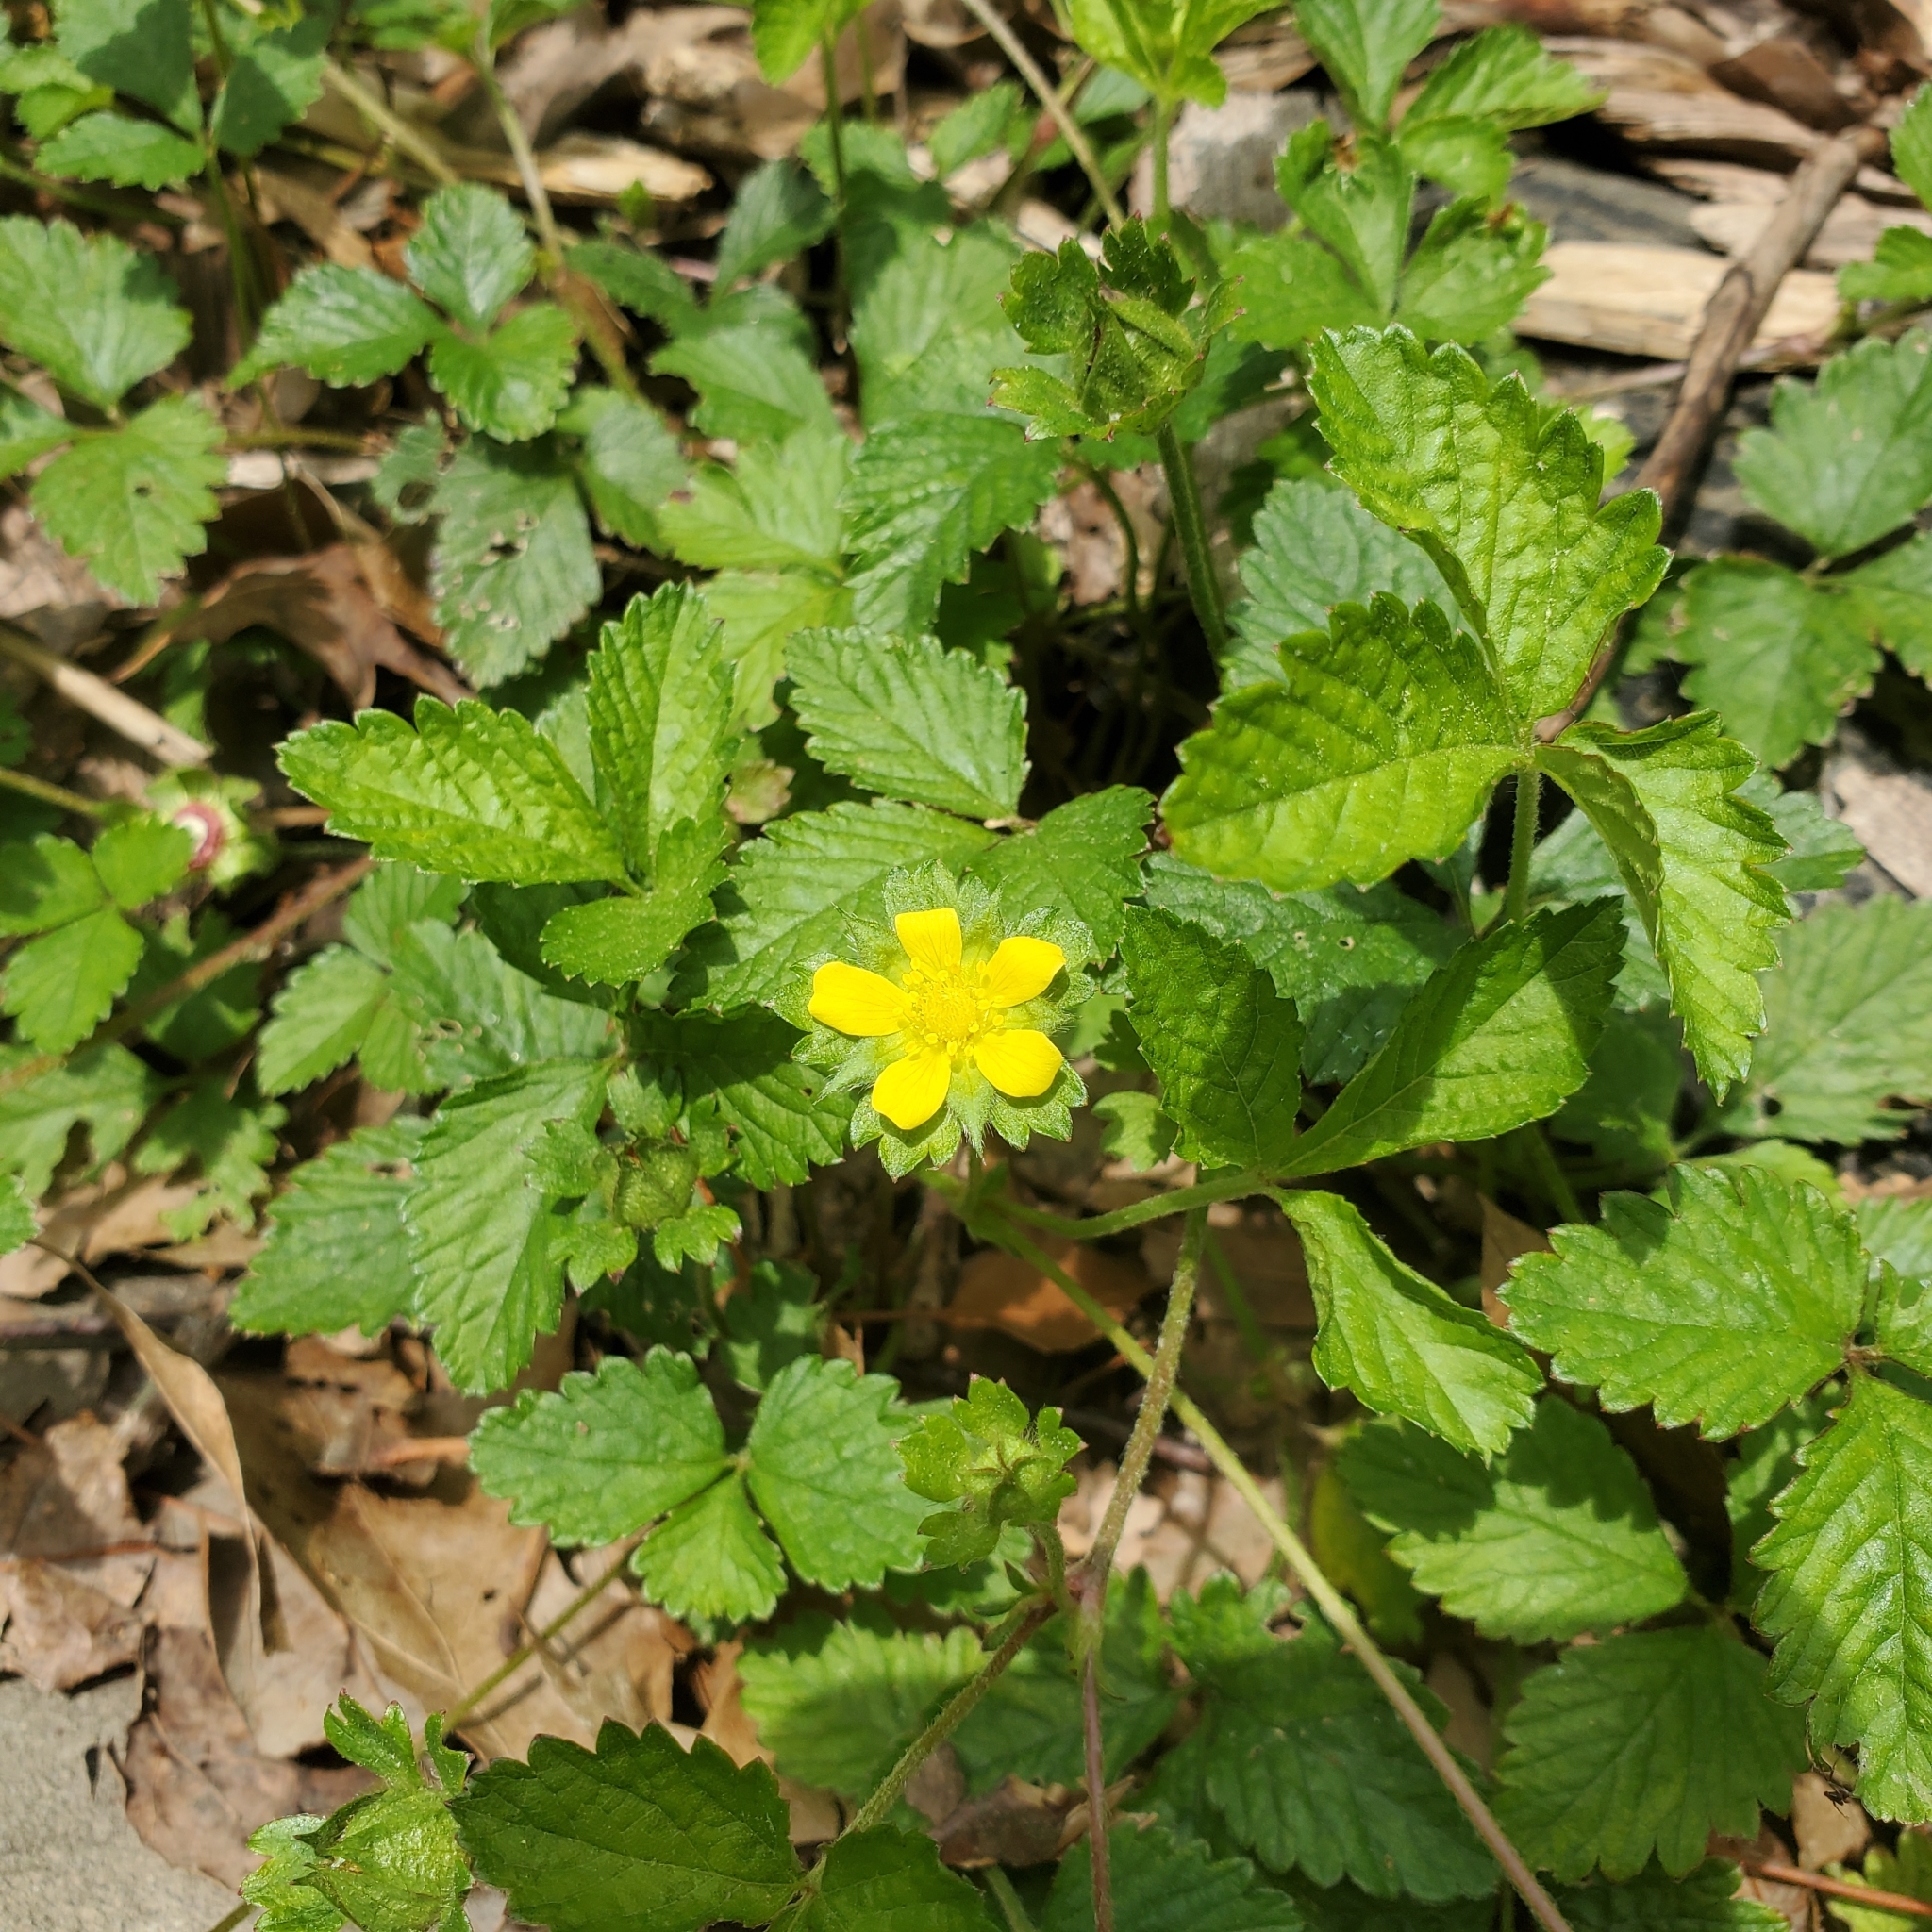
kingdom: Plantae
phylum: Tracheophyta
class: Magnoliopsida
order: Rosales
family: Rosaceae
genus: Potentilla
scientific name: Potentilla indica
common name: Yellow-flowered strawberry
